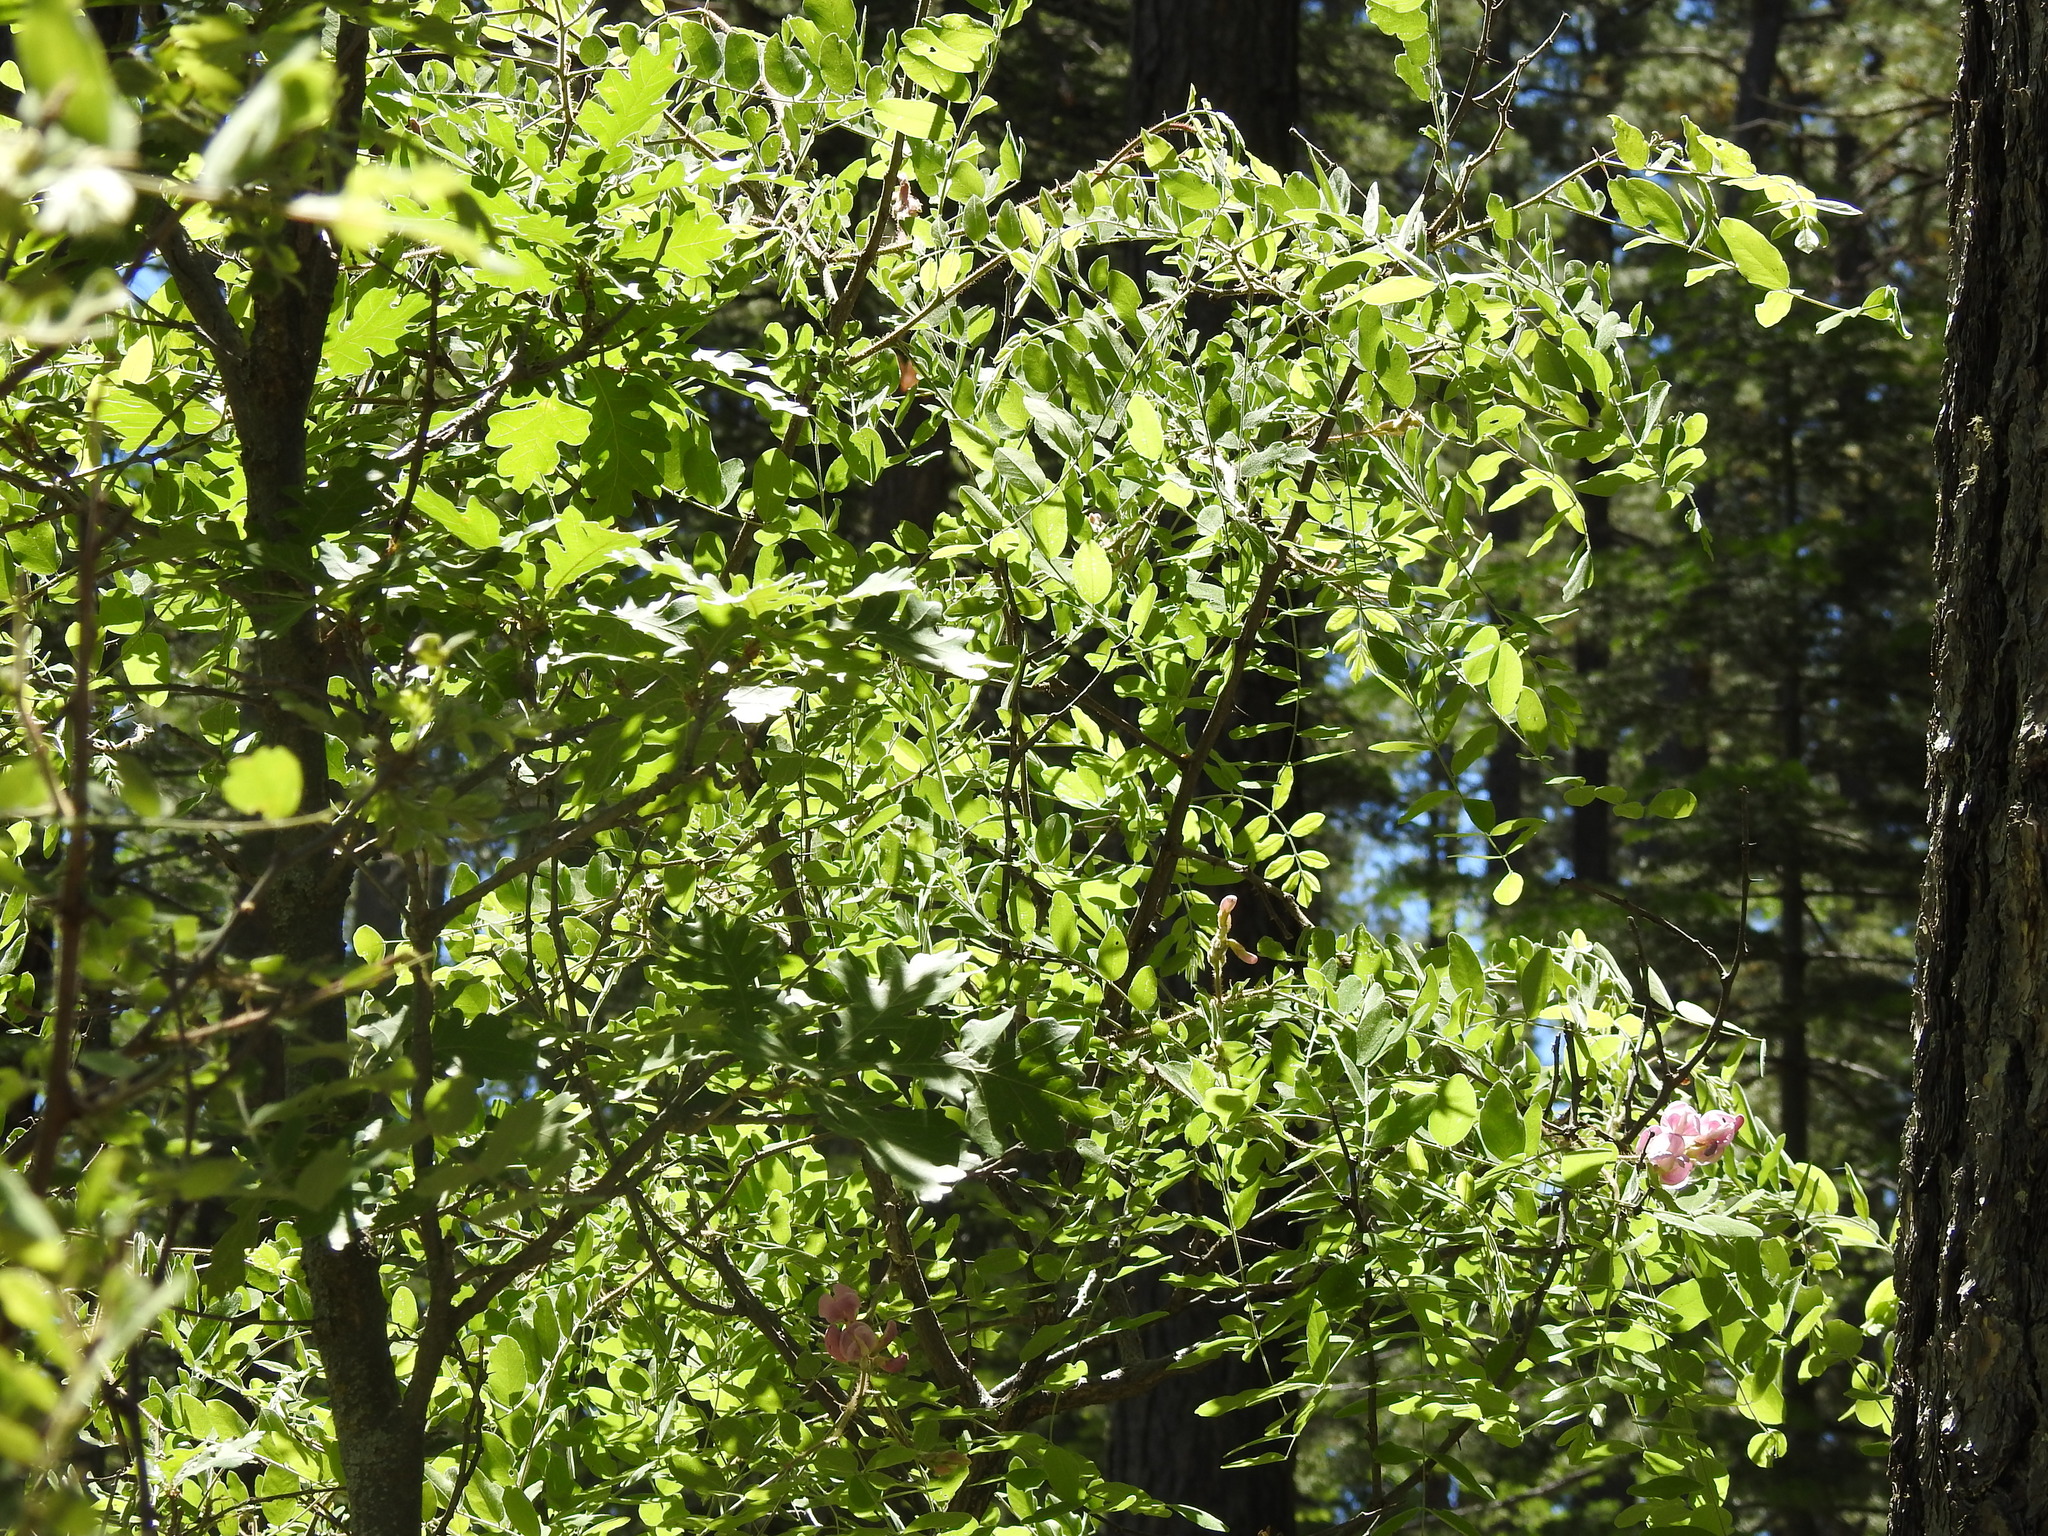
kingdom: Plantae
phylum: Tracheophyta
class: Magnoliopsida
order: Fabales
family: Fabaceae
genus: Robinia
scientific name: Robinia neomexicana
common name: New mexico locust
